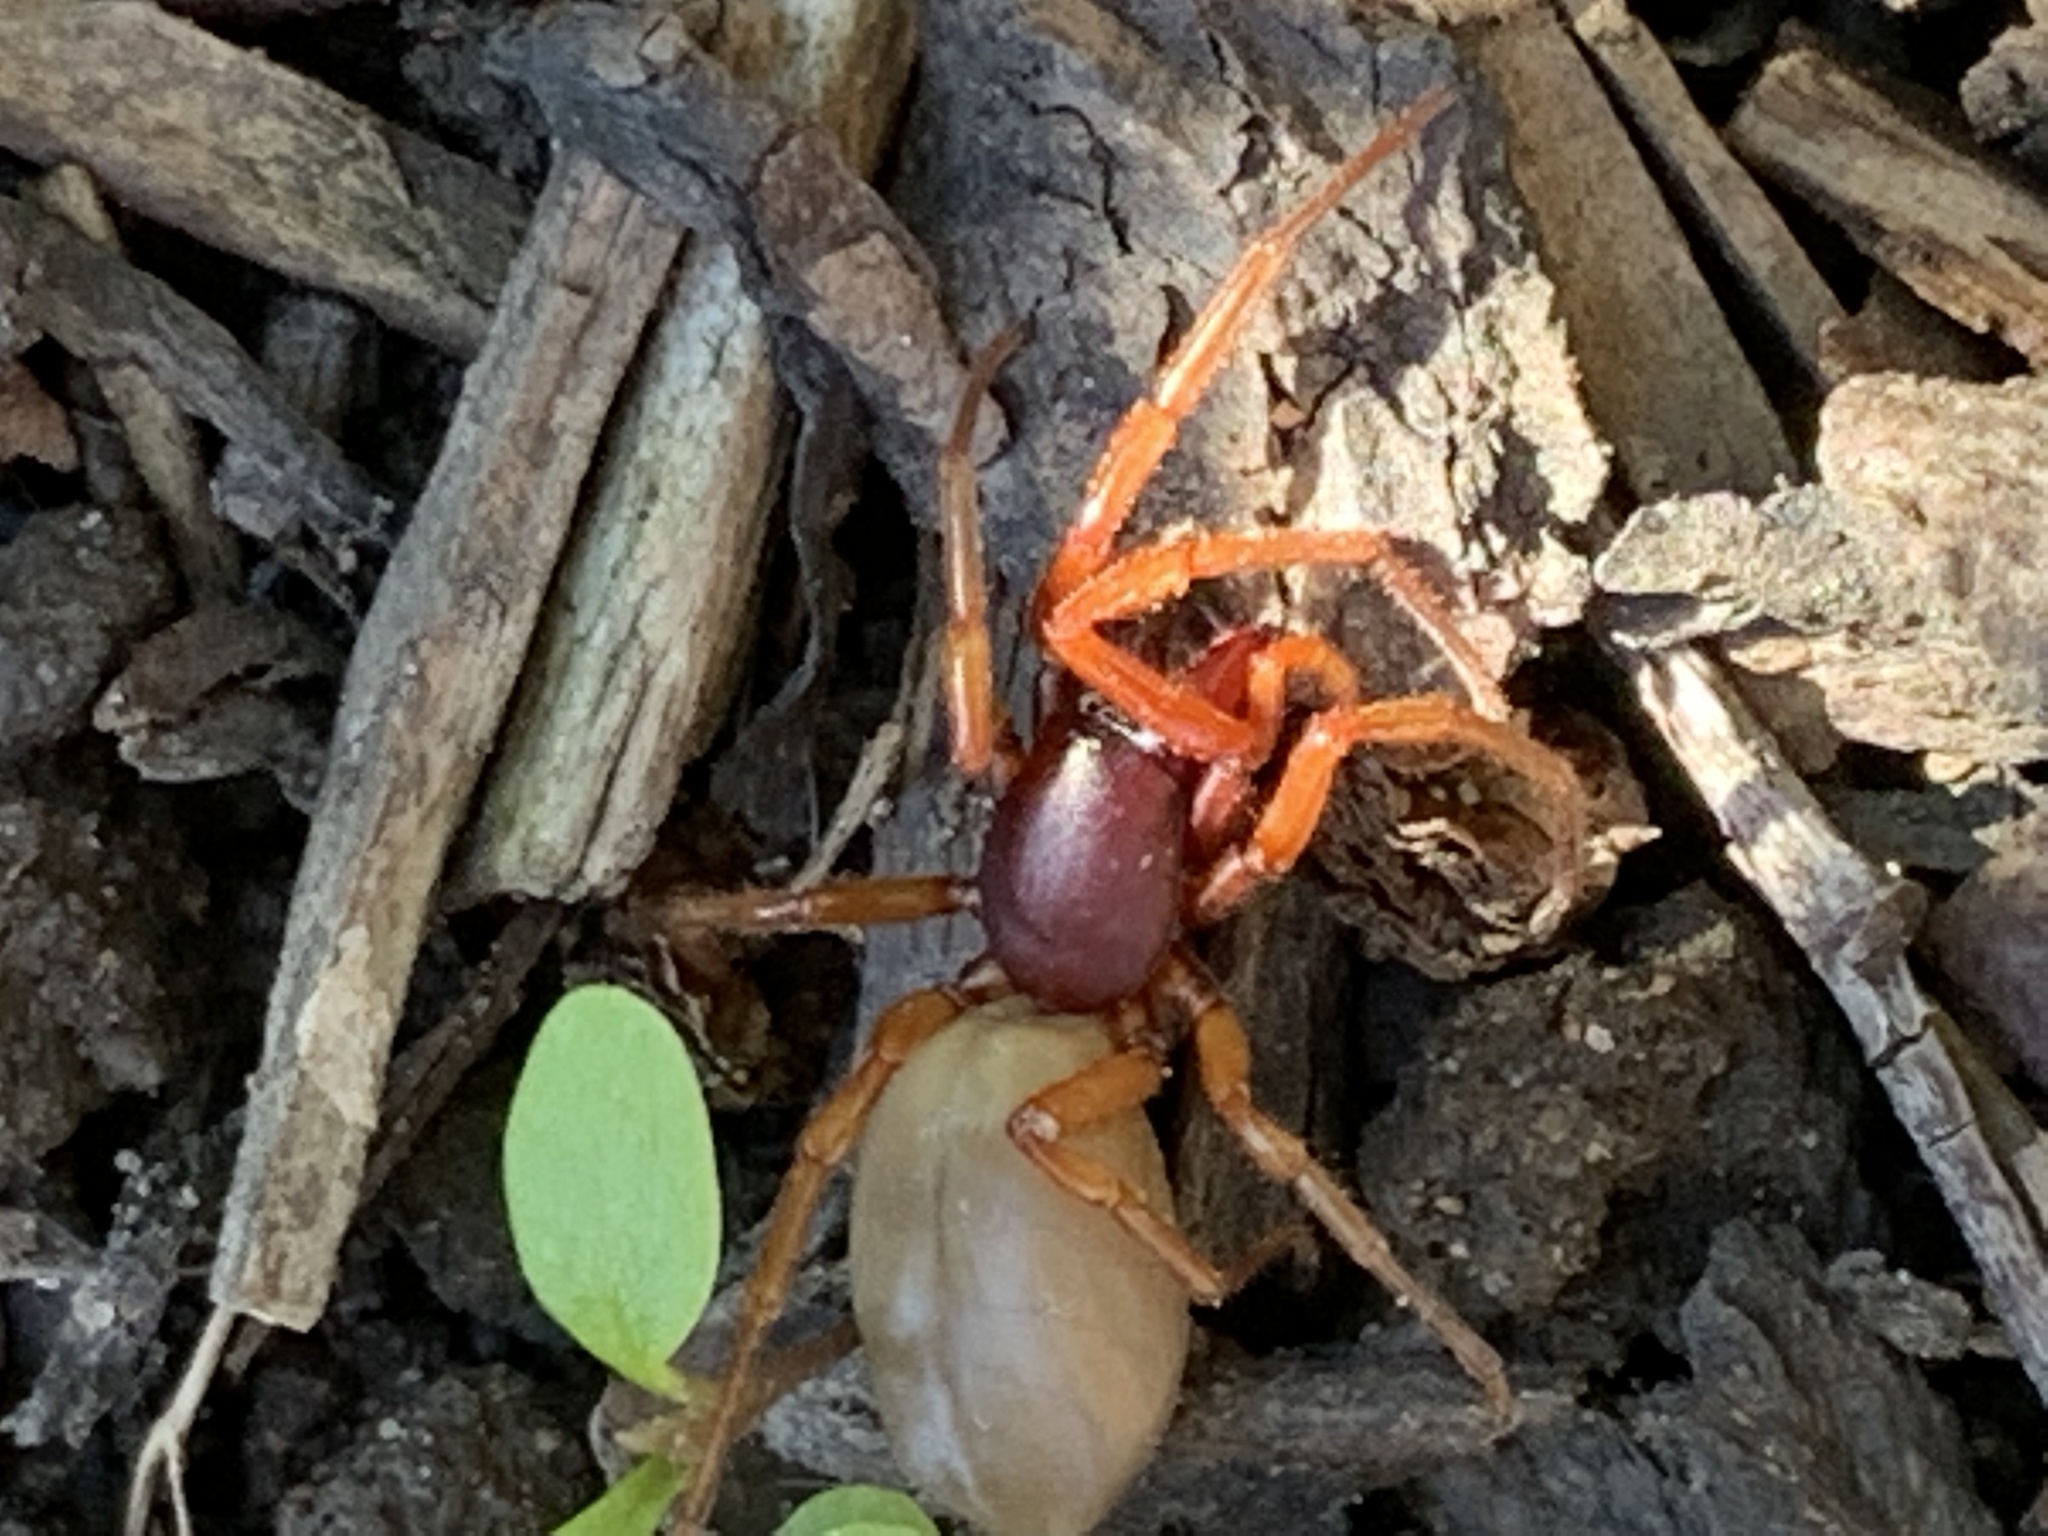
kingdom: Animalia
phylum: Arthropoda
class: Arachnida
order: Araneae
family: Dysderidae
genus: Dysdera
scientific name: Dysdera crocata
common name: Woodlouse spider
